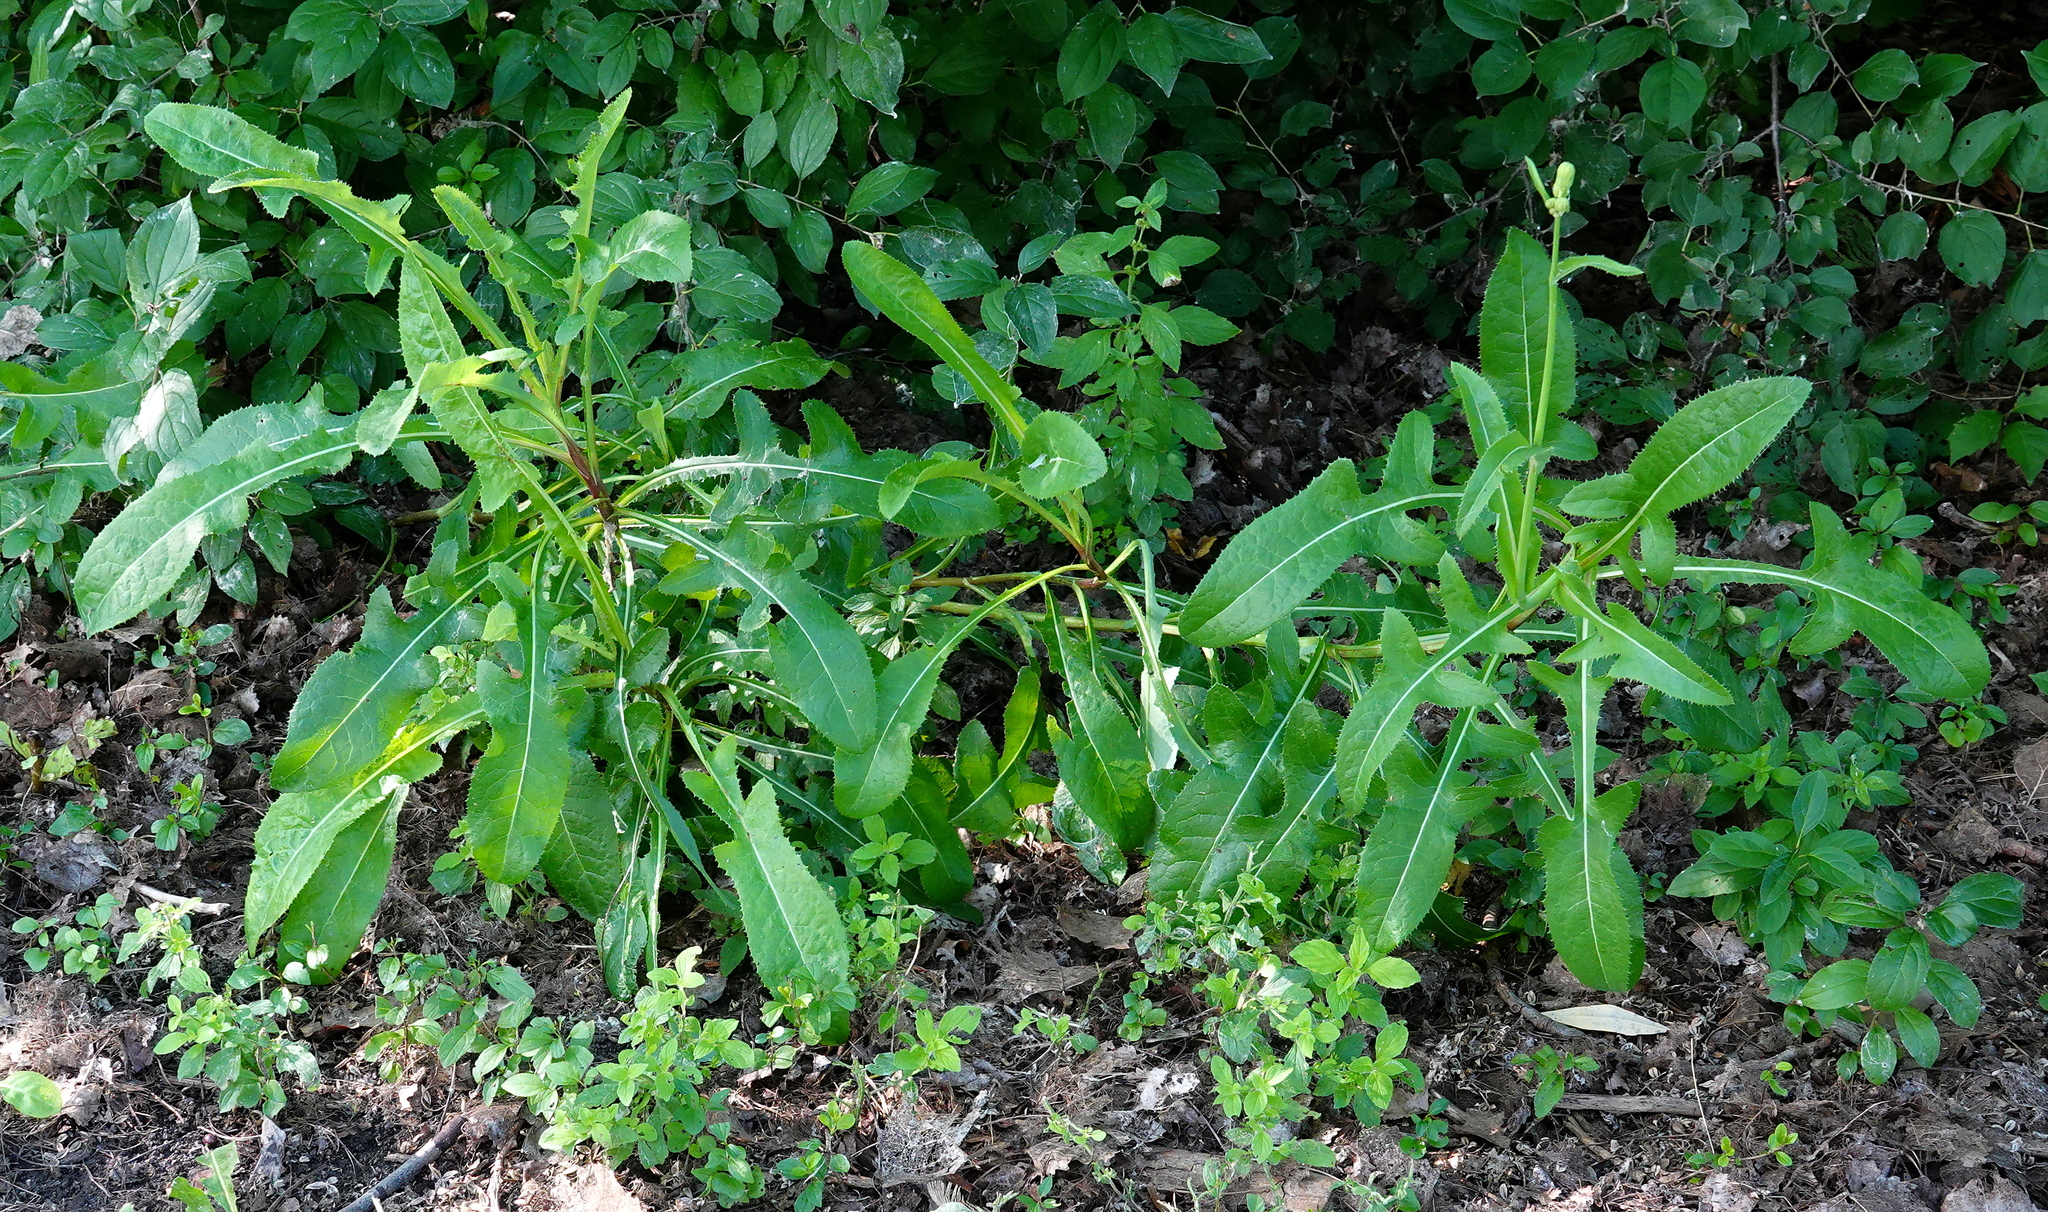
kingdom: Plantae
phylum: Tracheophyta
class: Magnoliopsida
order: Asterales
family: Asteraceae
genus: Sonchus
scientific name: Sonchus arvensis
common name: Perennial sow-thistle
